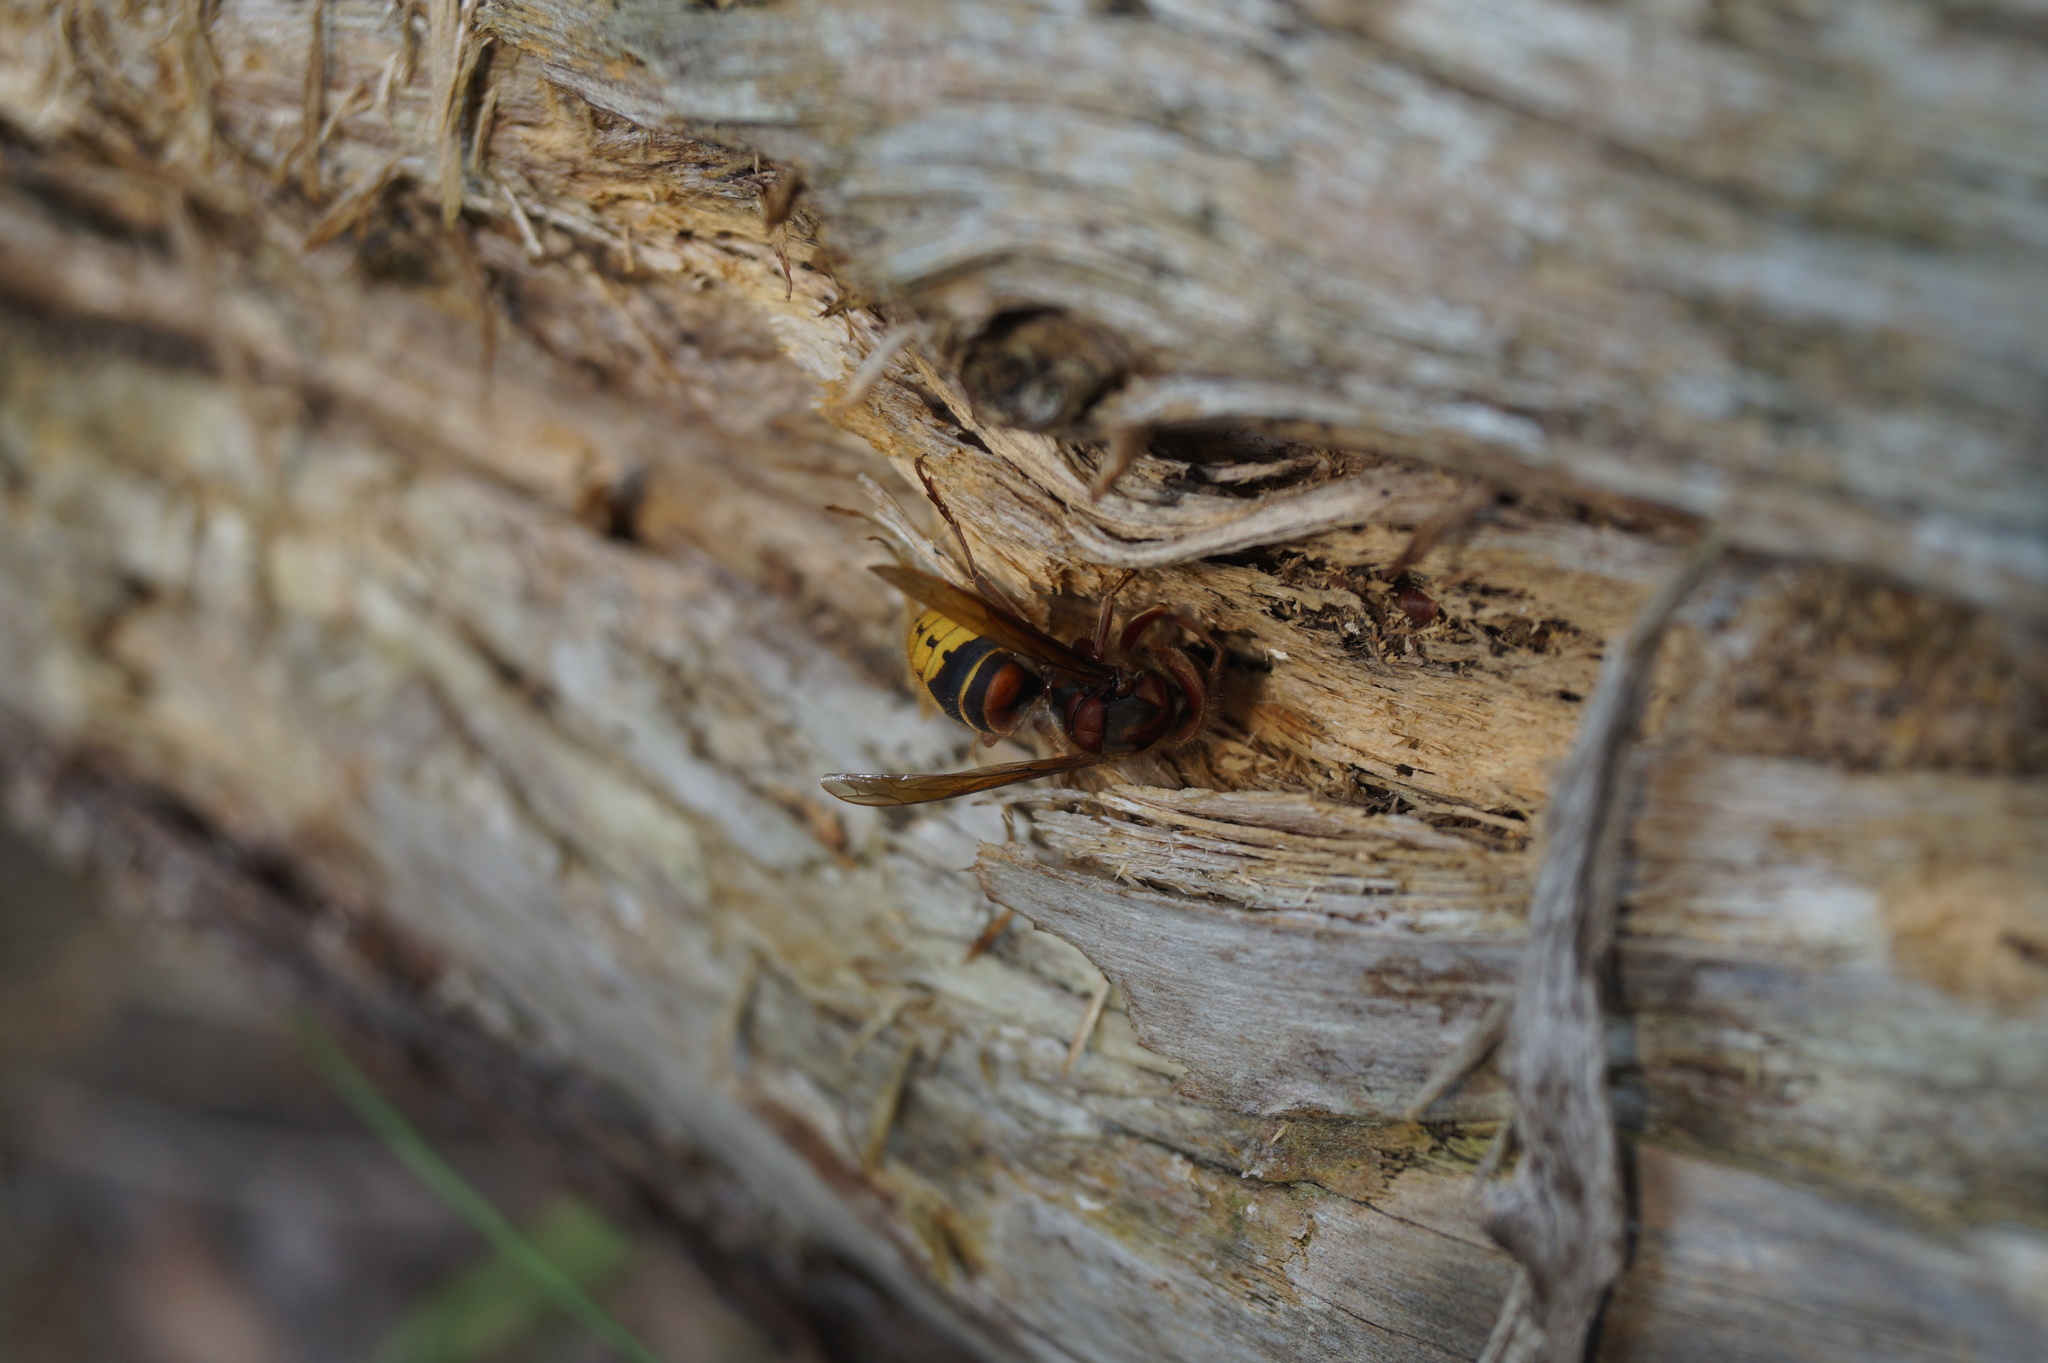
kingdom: Animalia
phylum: Arthropoda
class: Insecta
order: Hymenoptera
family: Vespidae
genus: Vespa
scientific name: Vespa crabro
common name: Hornet
